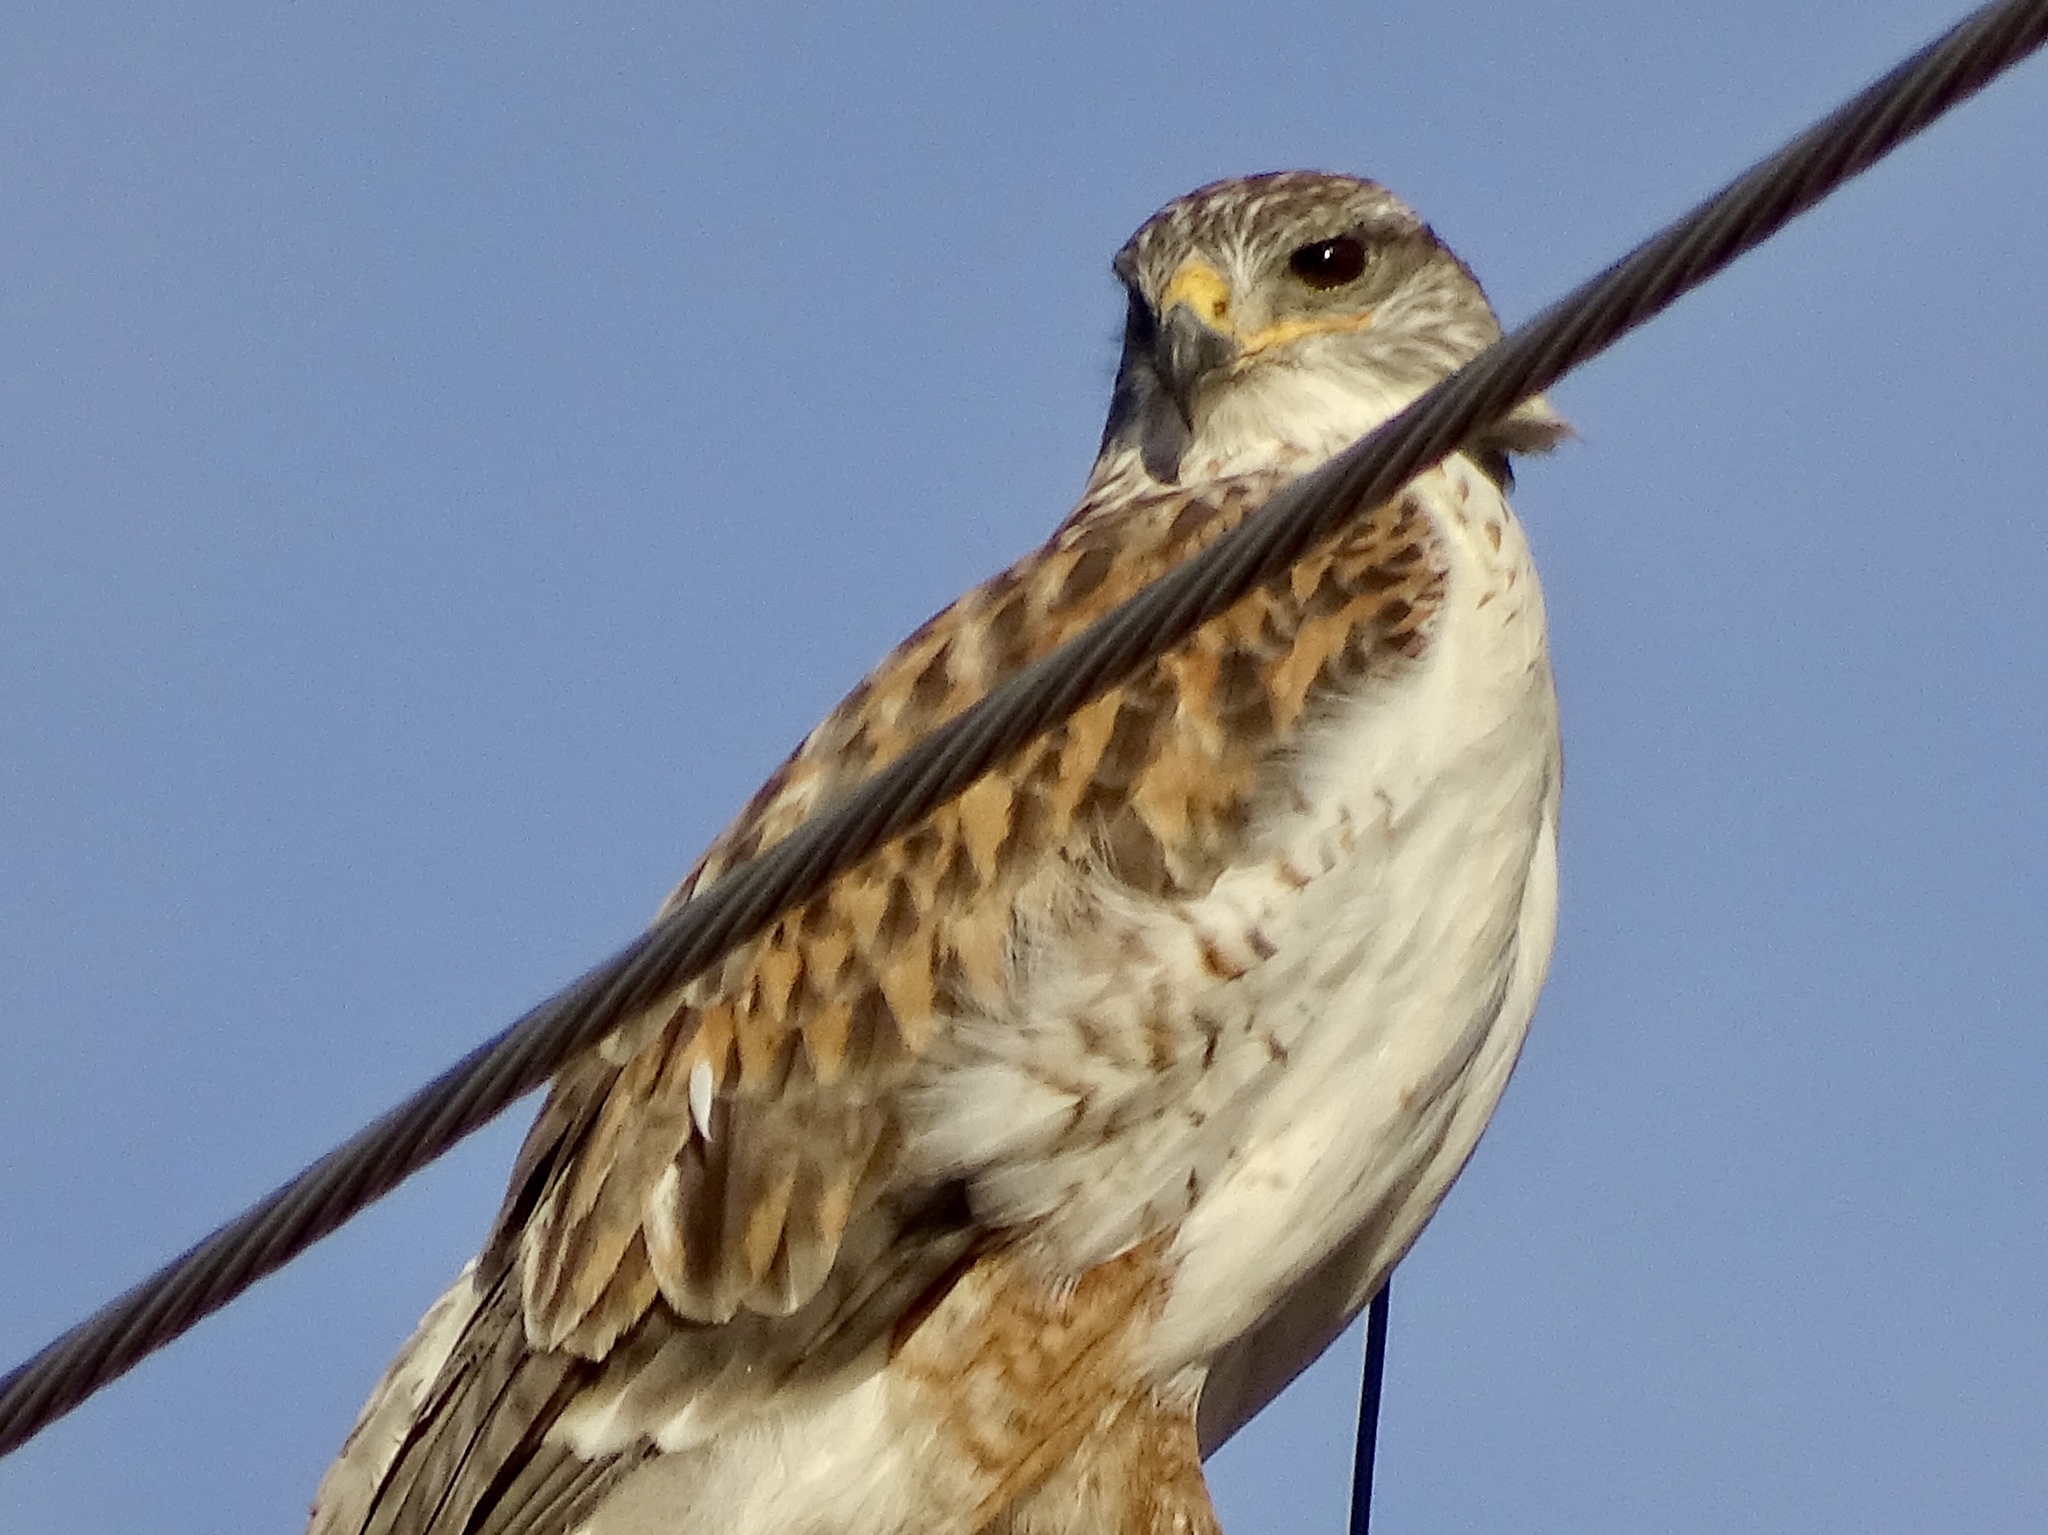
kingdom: Animalia
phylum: Chordata
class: Aves
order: Accipitriformes
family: Accipitridae
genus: Buteo
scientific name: Buteo regalis
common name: Ferruginous hawk
